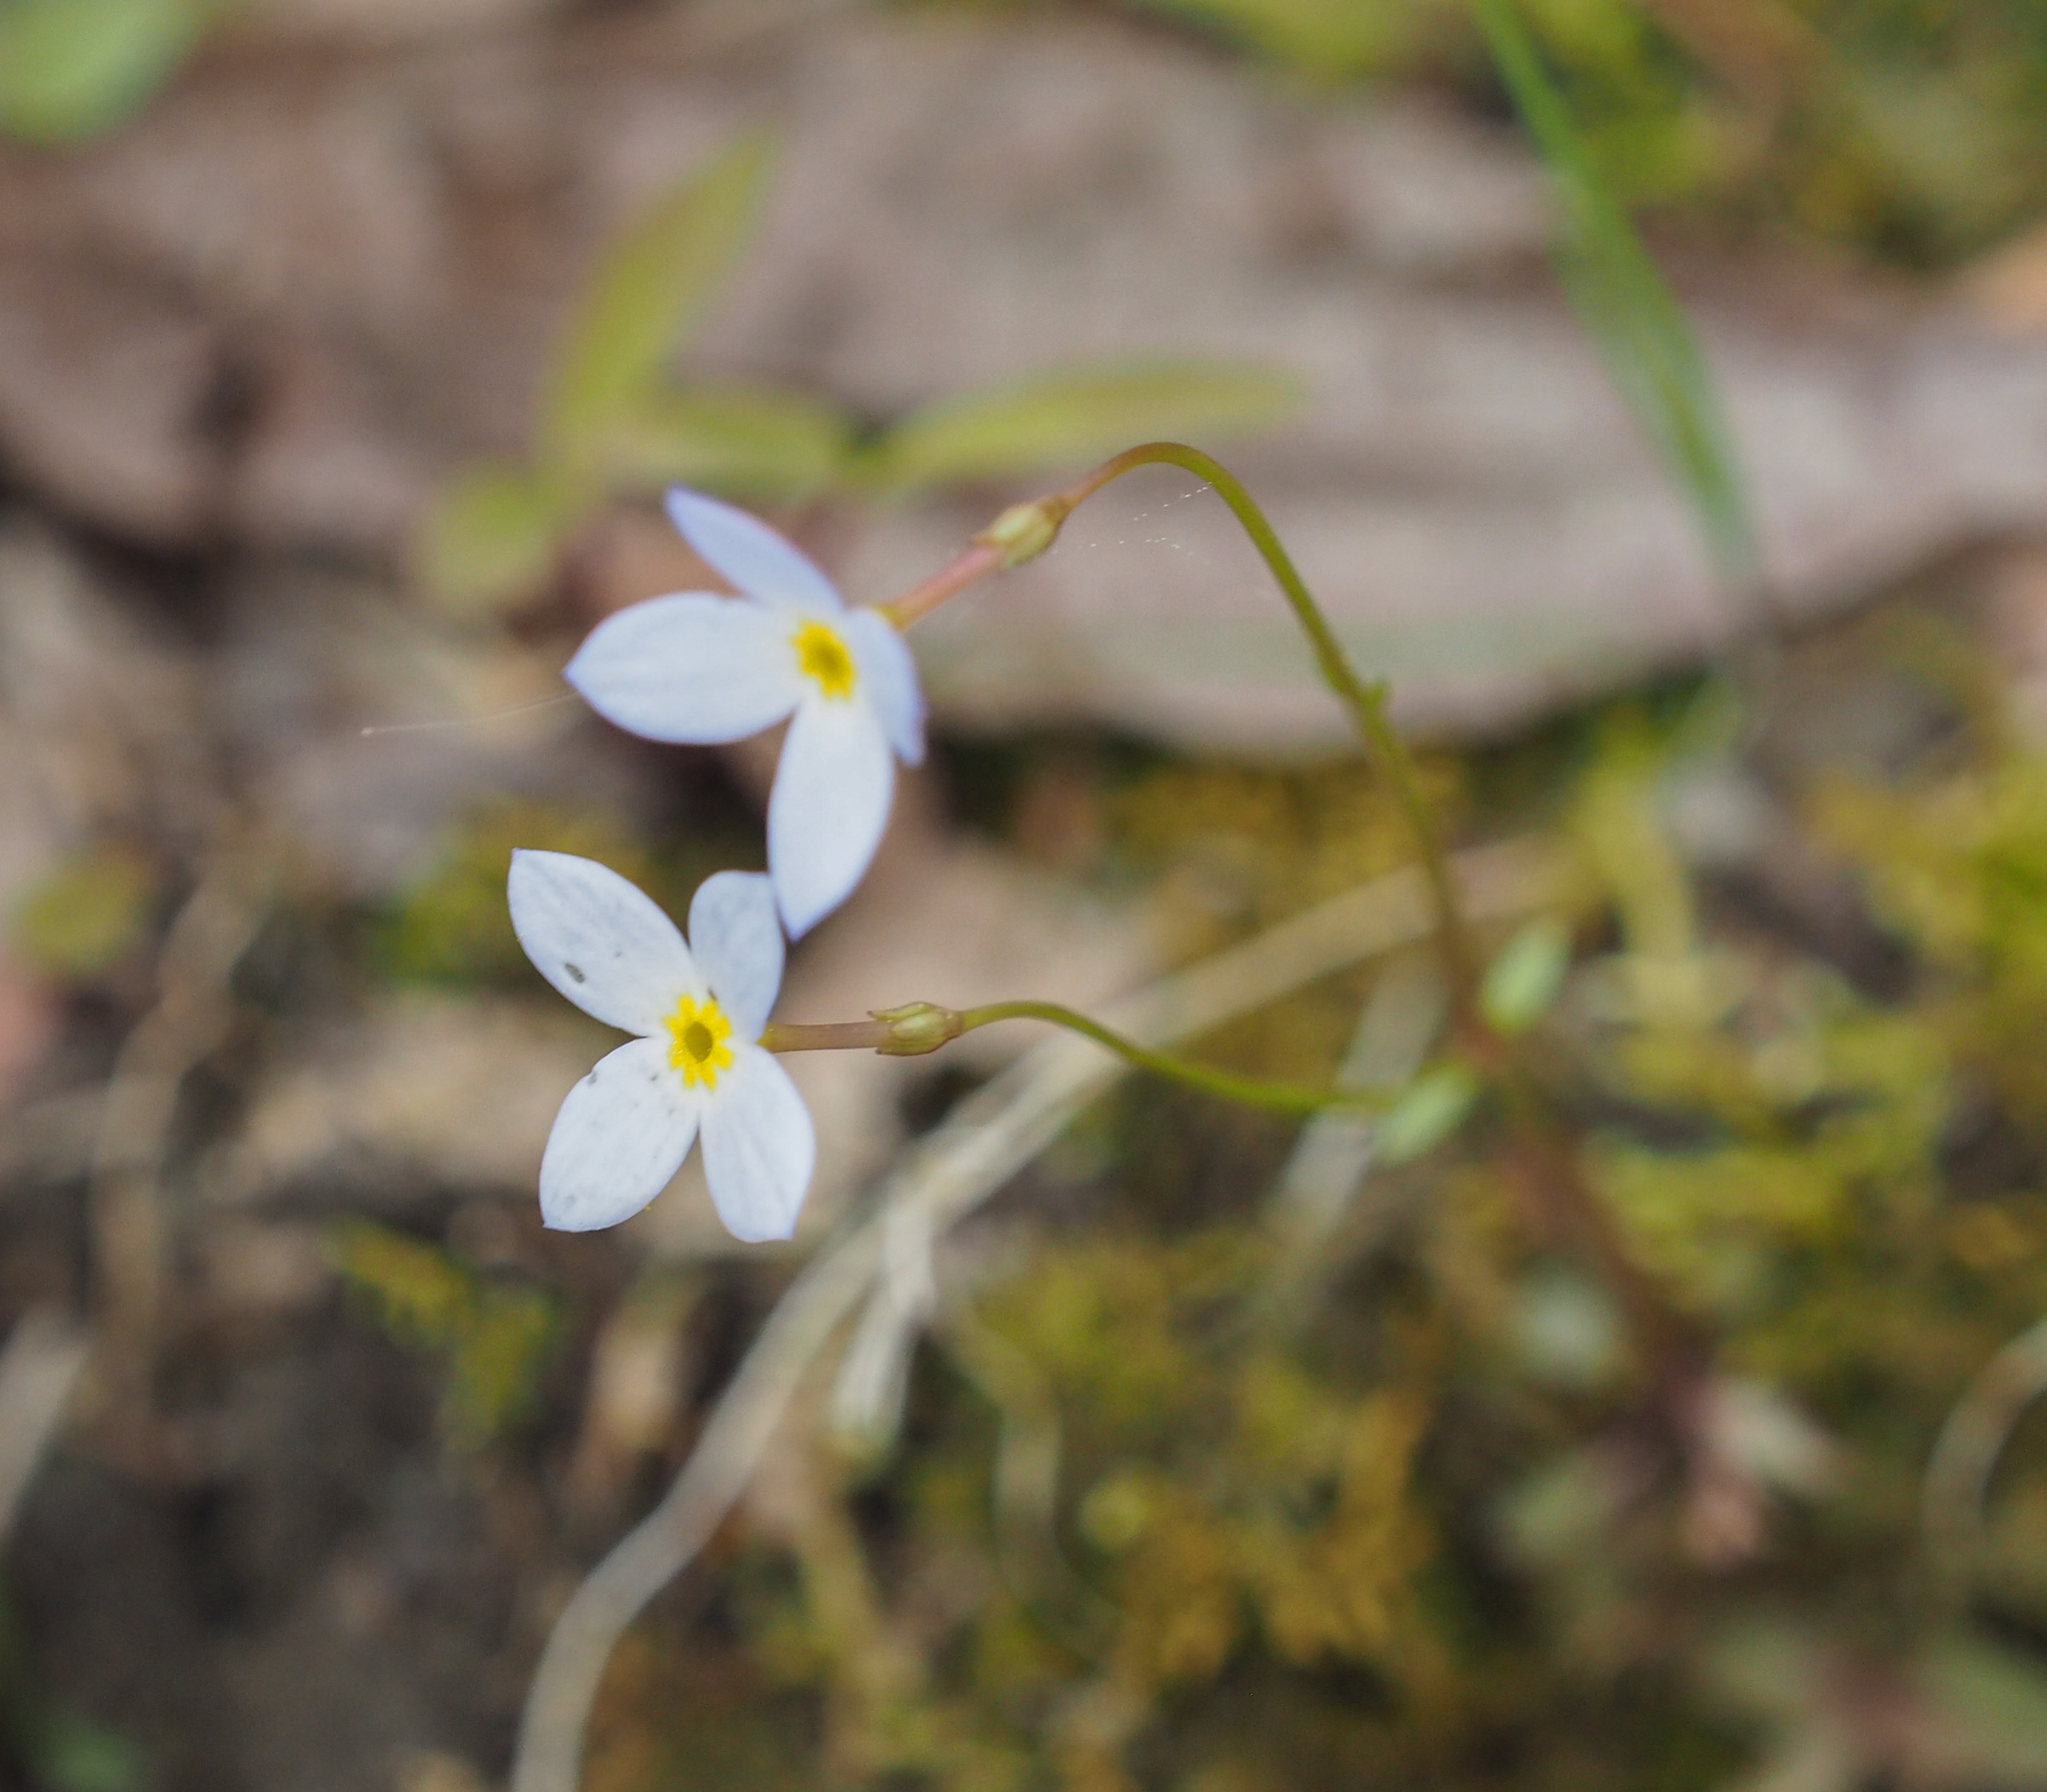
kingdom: Plantae
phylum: Tracheophyta
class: Magnoliopsida
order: Gentianales
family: Rubiaceae
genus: Houstonia
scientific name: Houstonia caerulea
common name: Bluets
